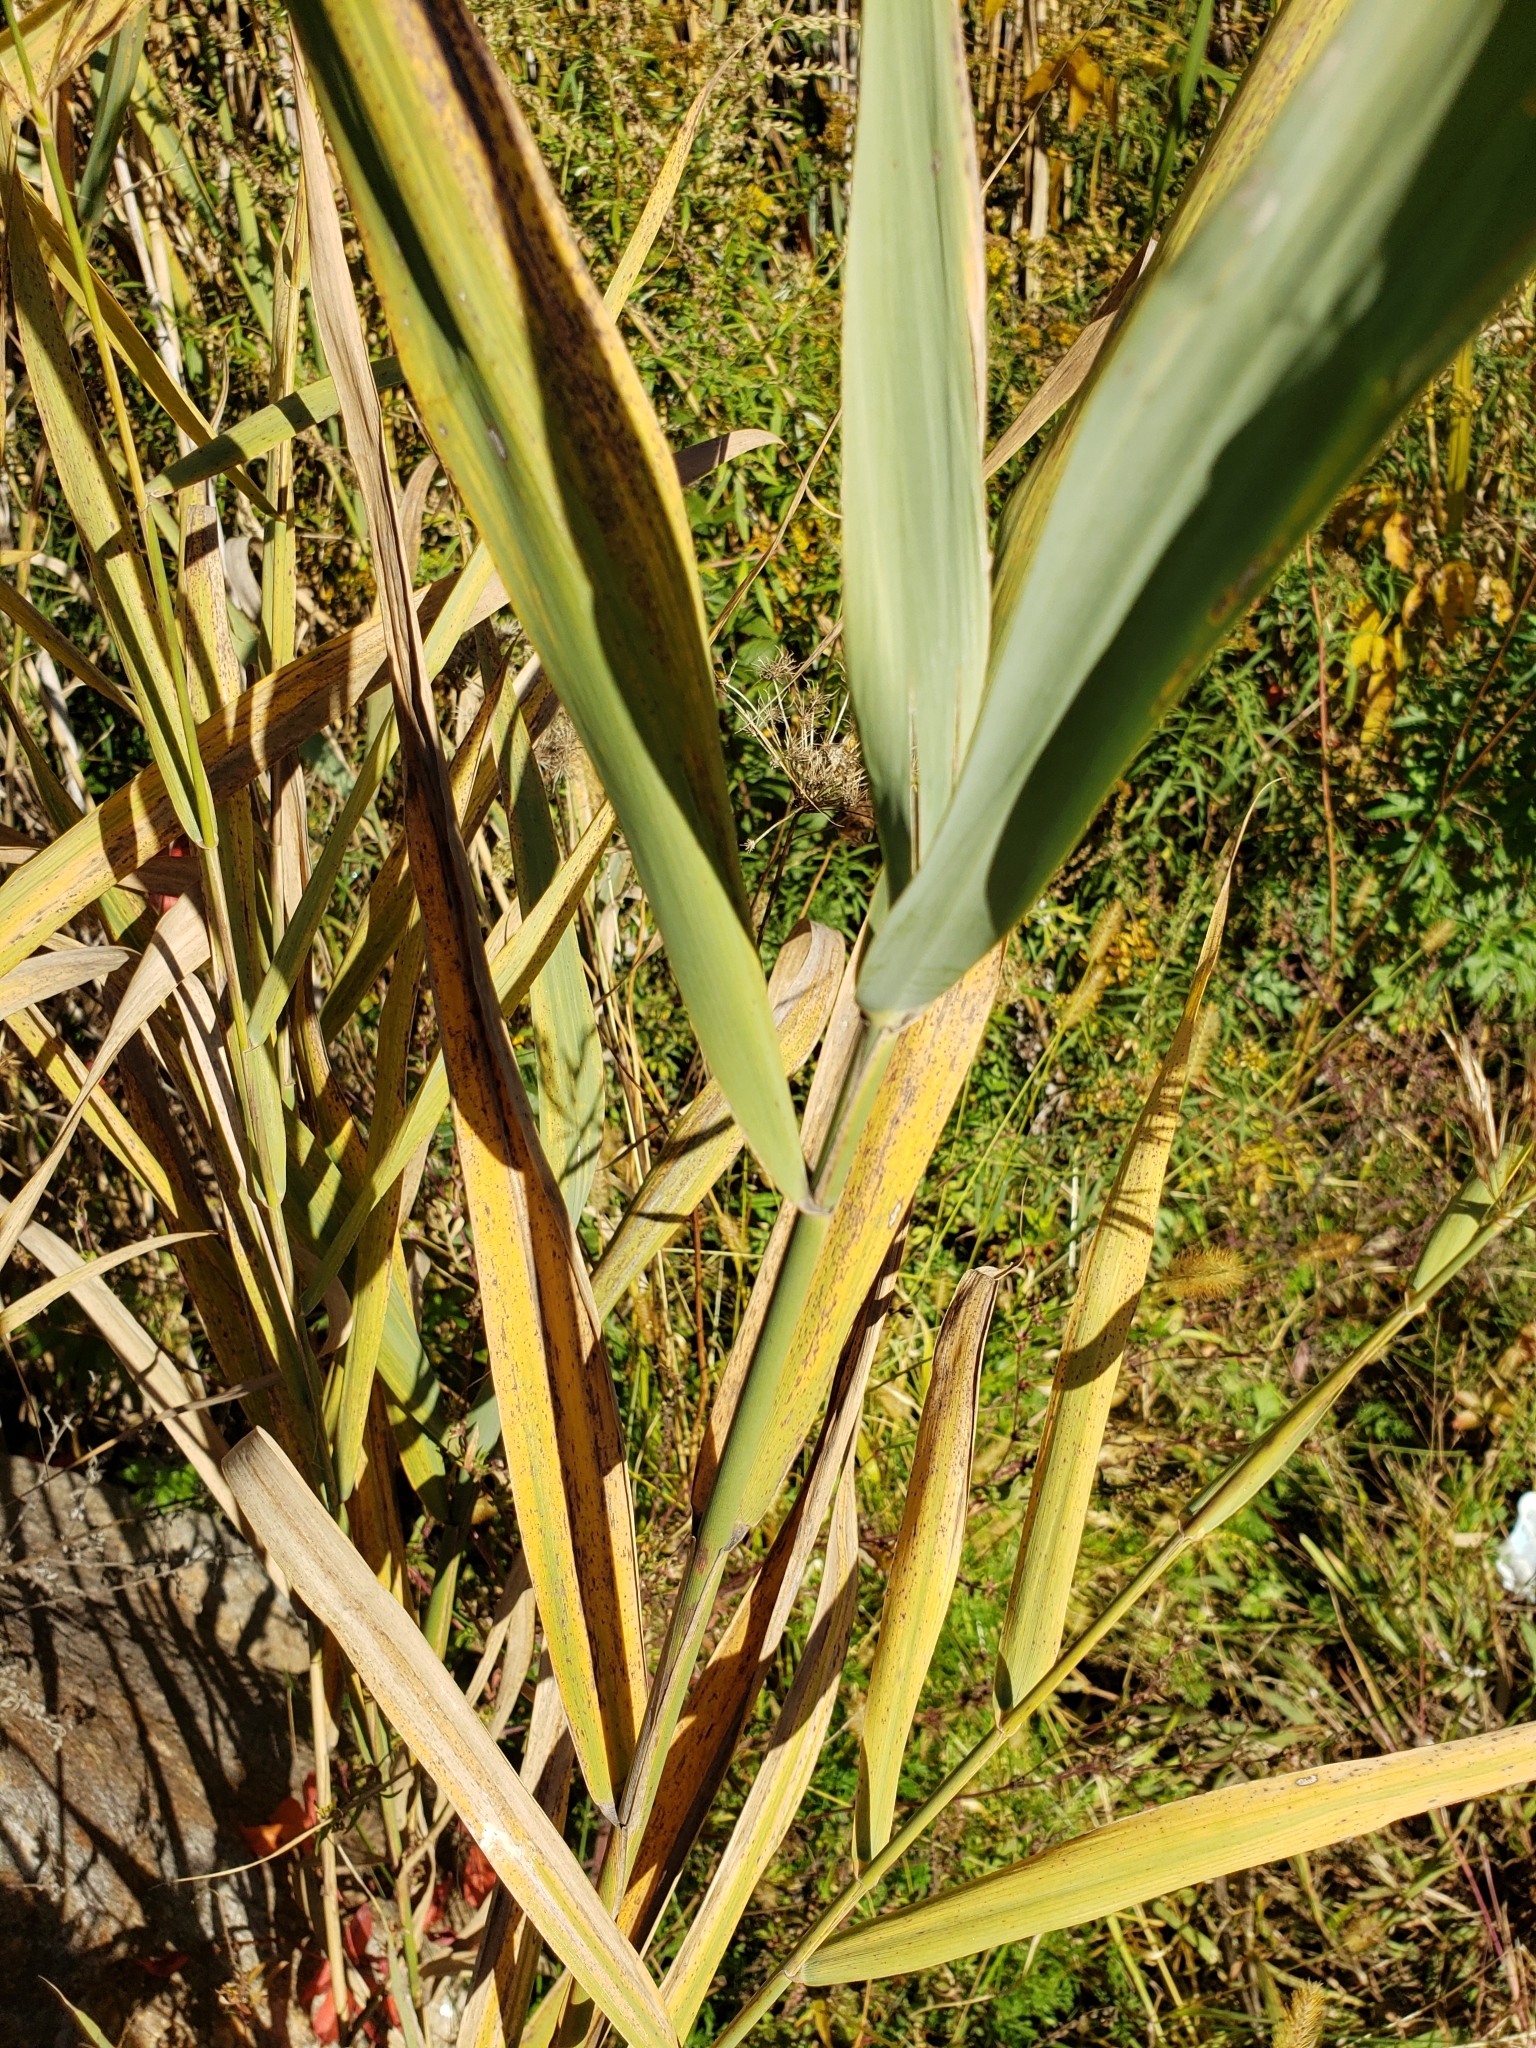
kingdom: Plantae
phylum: Tracheophyta
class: Liliopsida
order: Poales
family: Poaceae
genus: Phragmites
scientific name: Phragmites australis
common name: Common reed
